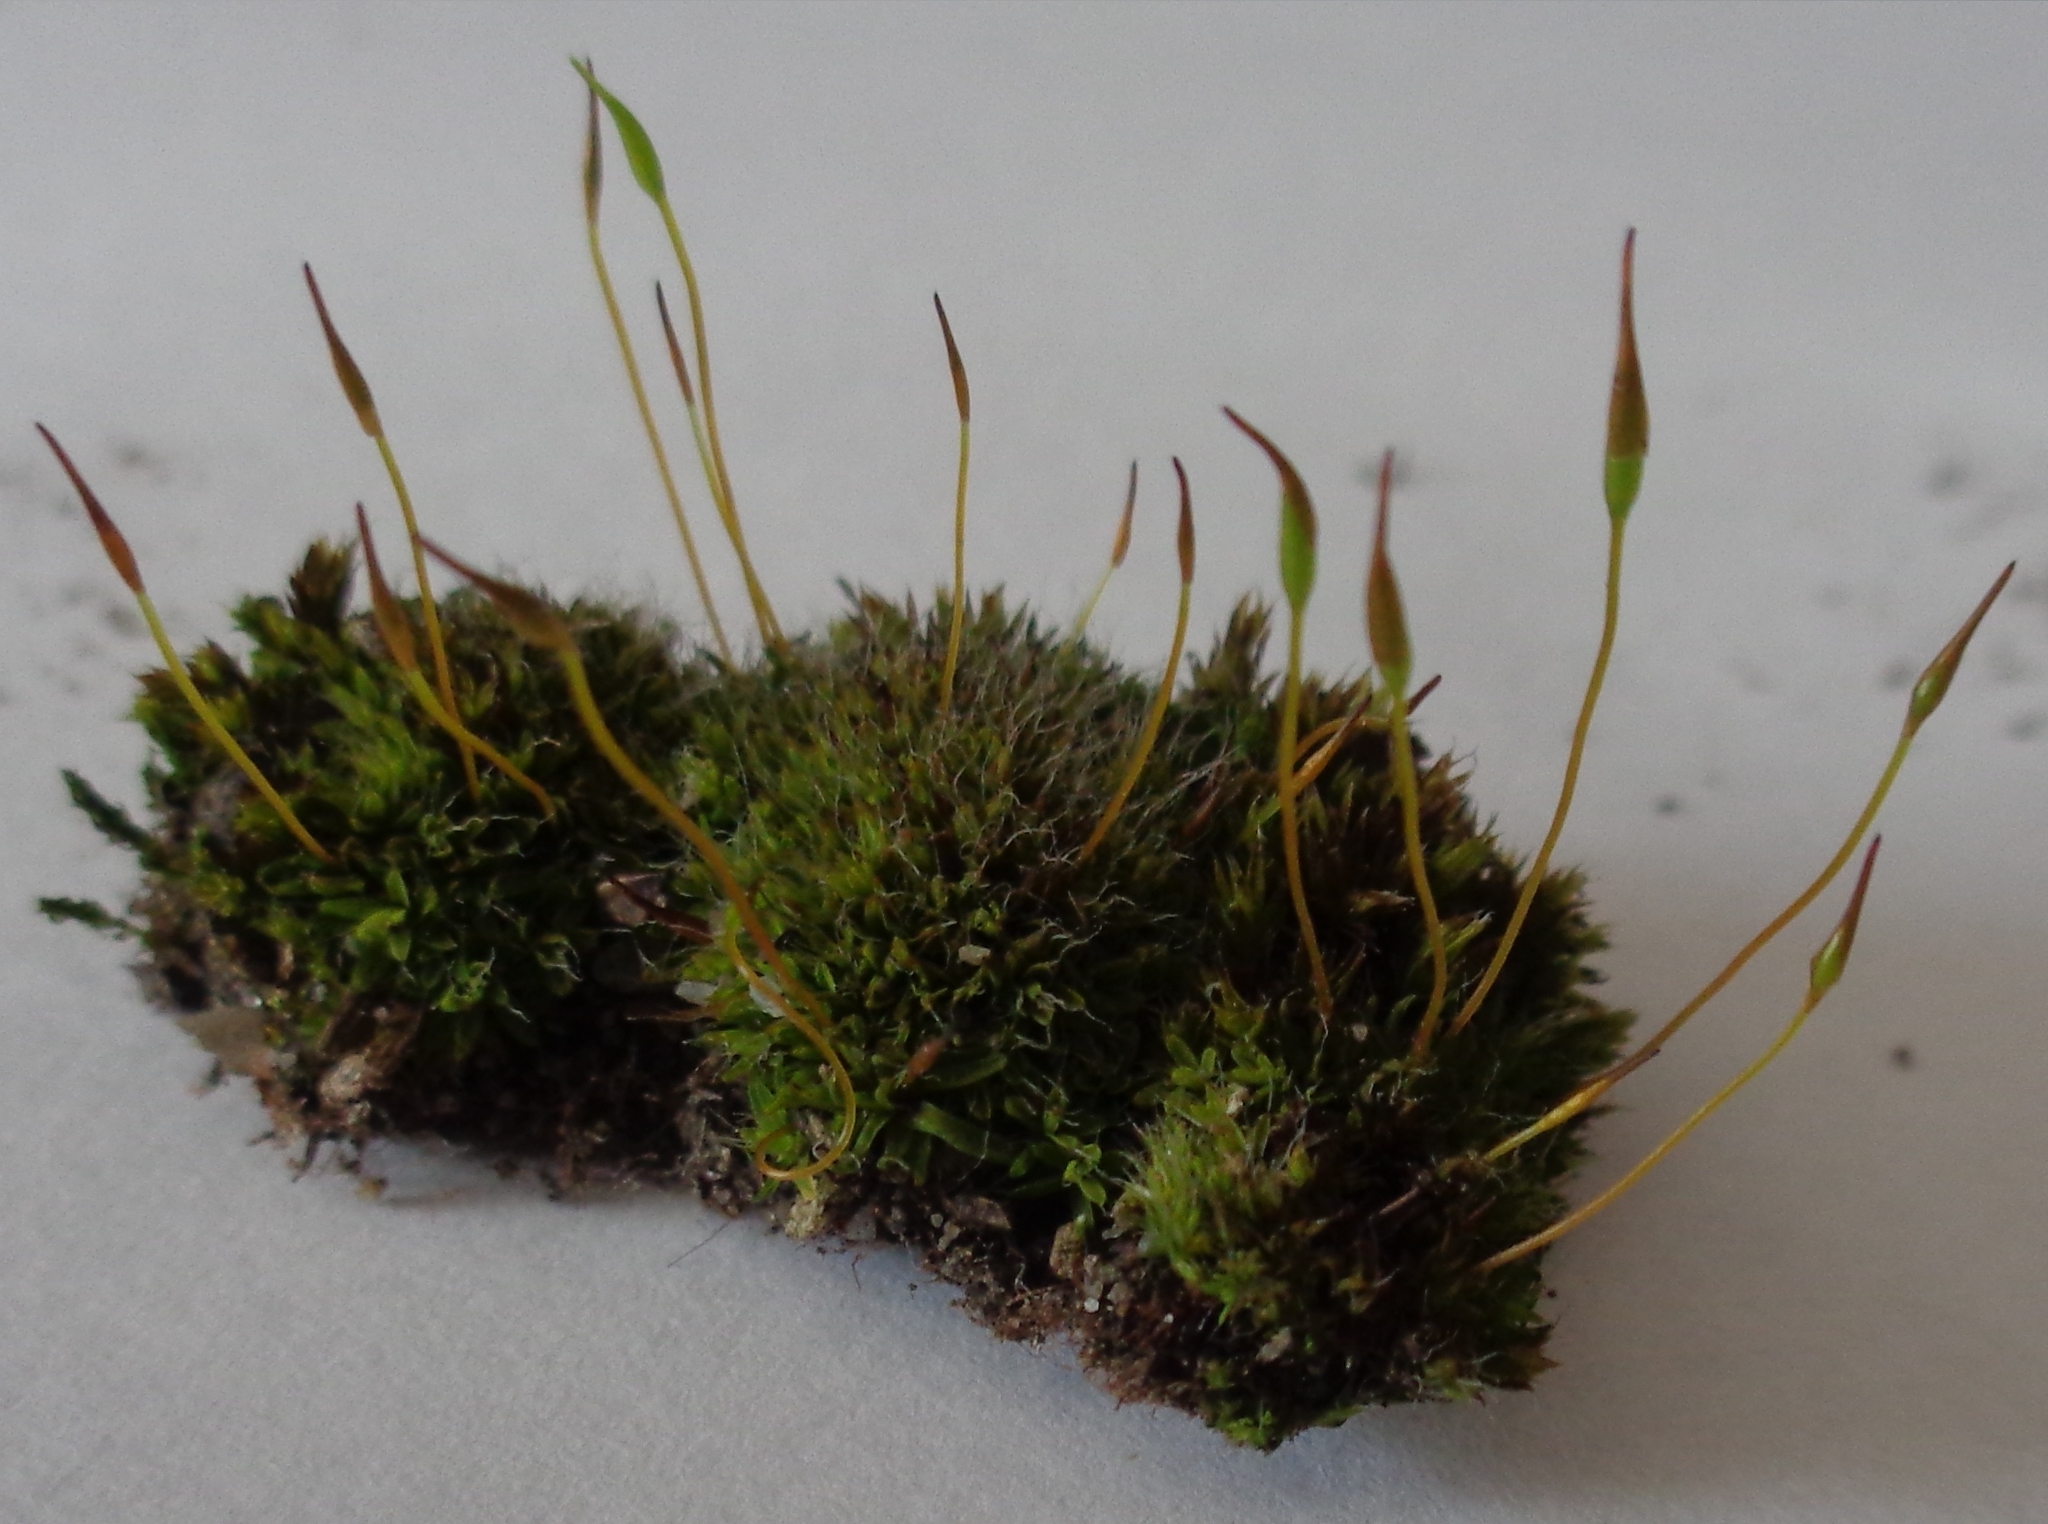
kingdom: Plantae
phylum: Bryophyta
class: Bryopsida
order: Pottiales
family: Pottiaceae
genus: Tortula
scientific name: Tortula muralis
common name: Wall screw-moss
